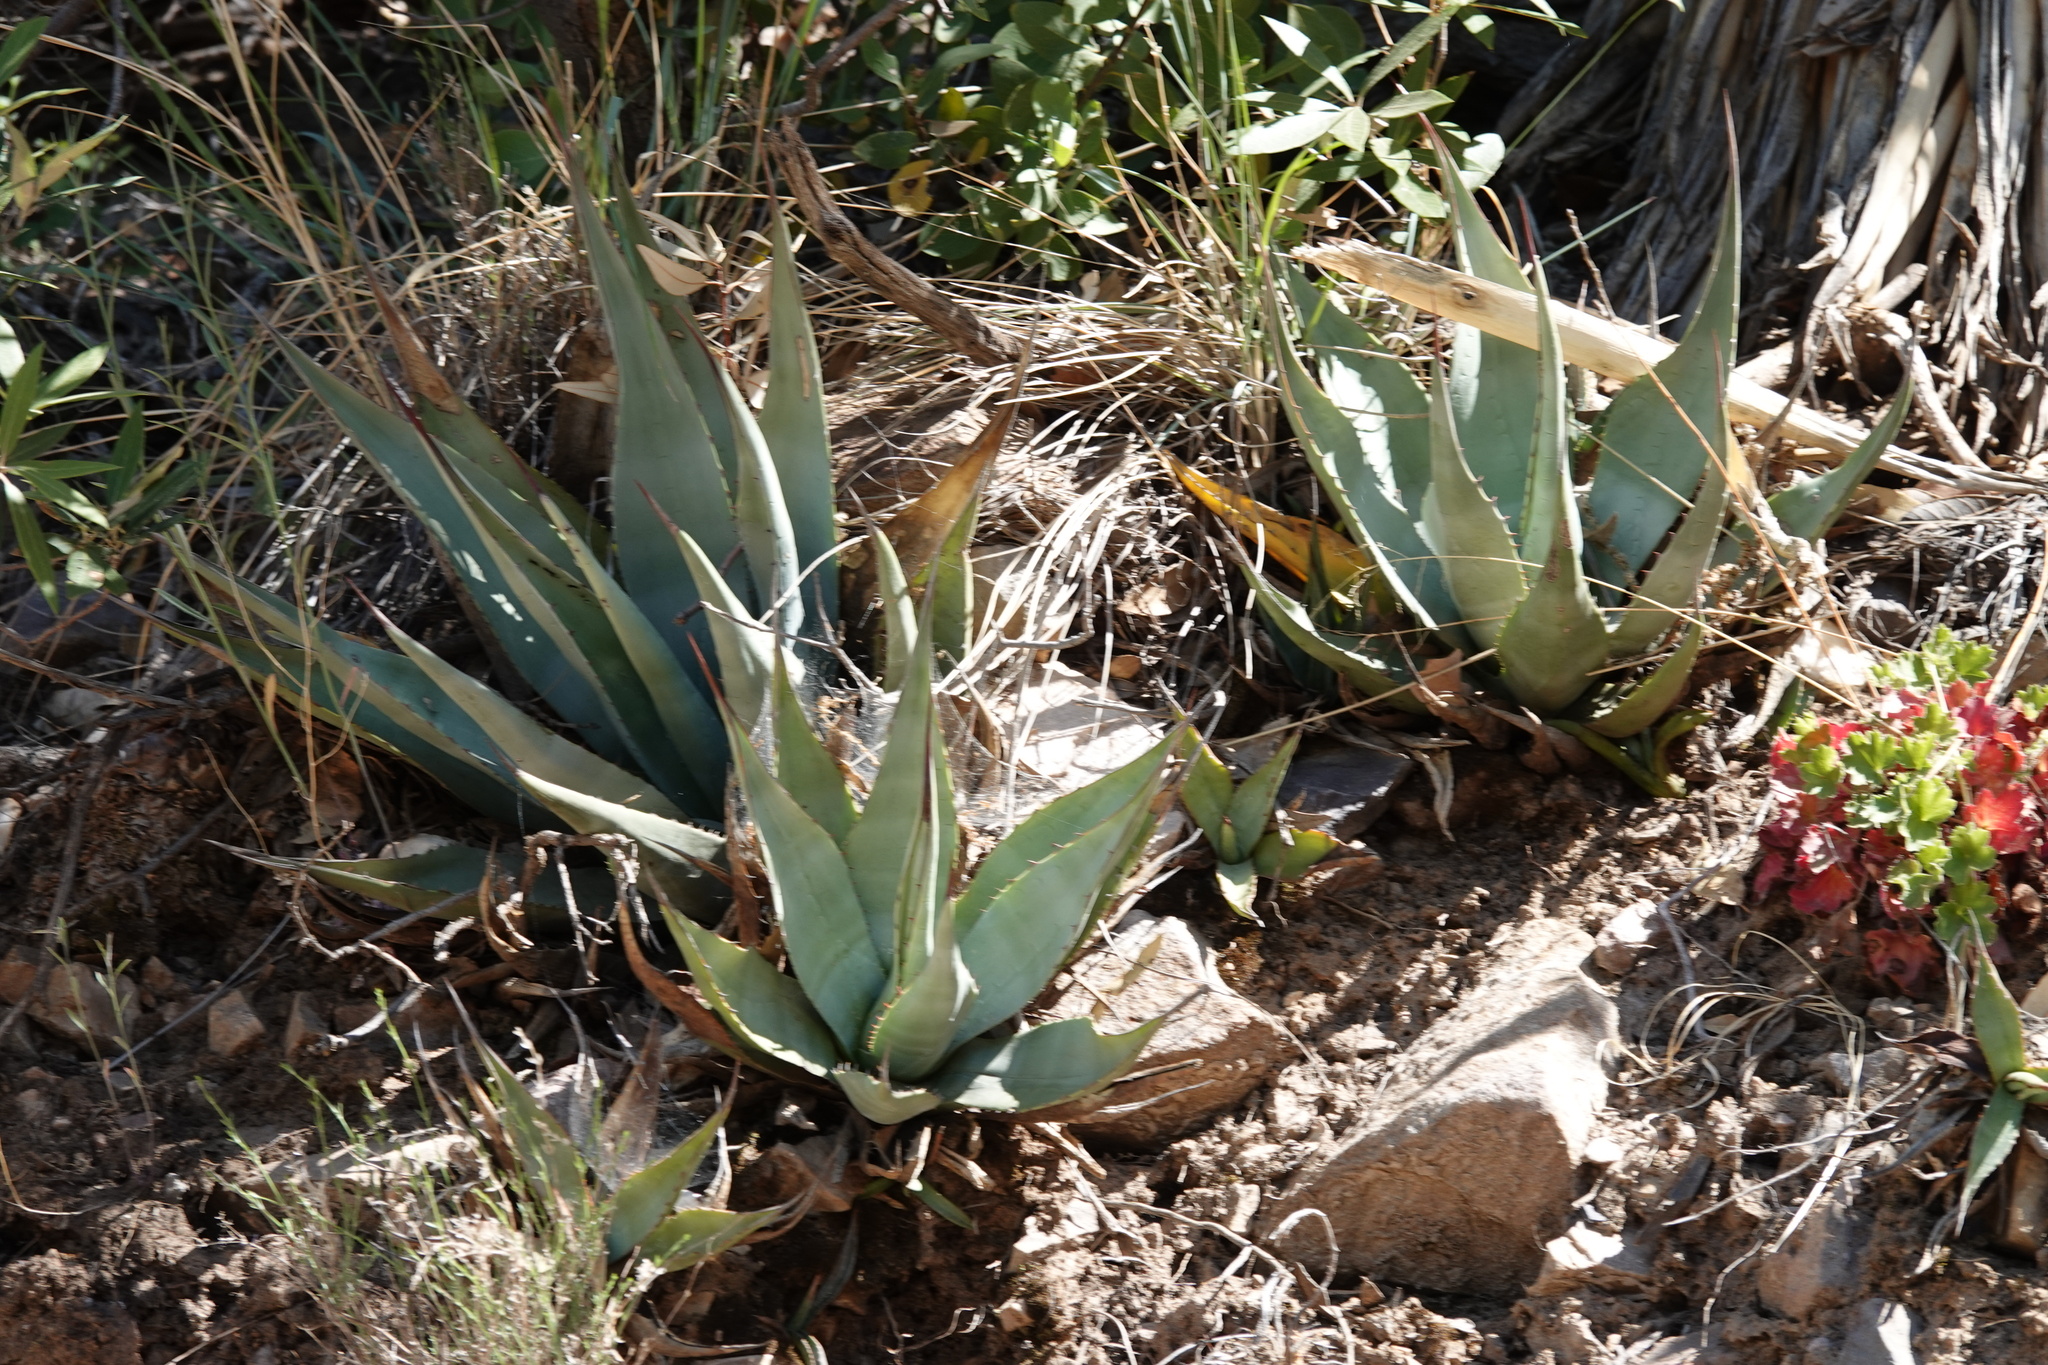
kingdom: Plantae
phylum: Tracheophyta
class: Liliopsida
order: Asparagales
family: Asparagaceae
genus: Agave
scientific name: Agave palmeri
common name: Palmer agave
